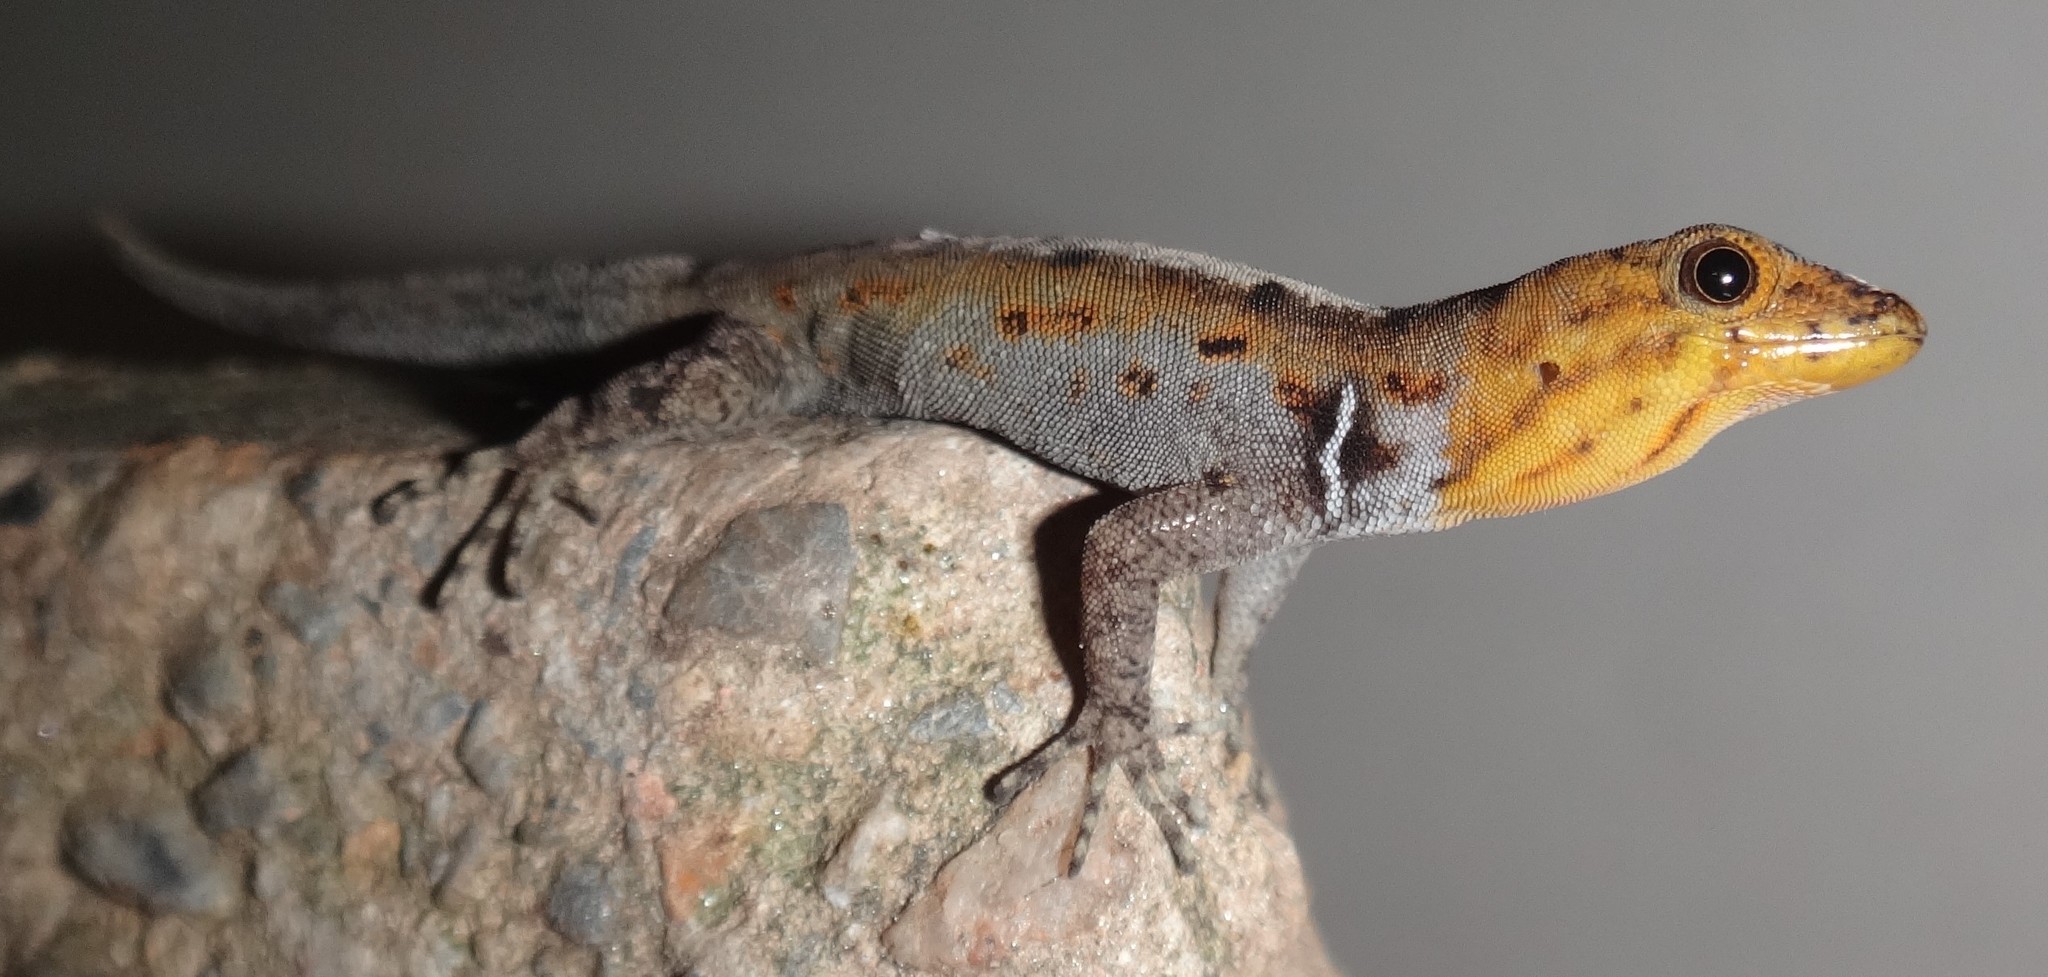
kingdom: Animalia
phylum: Chordata
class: Squamata
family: Sphaerodactylidae
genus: Gonatodes
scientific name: Gonatodes vittatus
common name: Wiegmann's striped gecko
